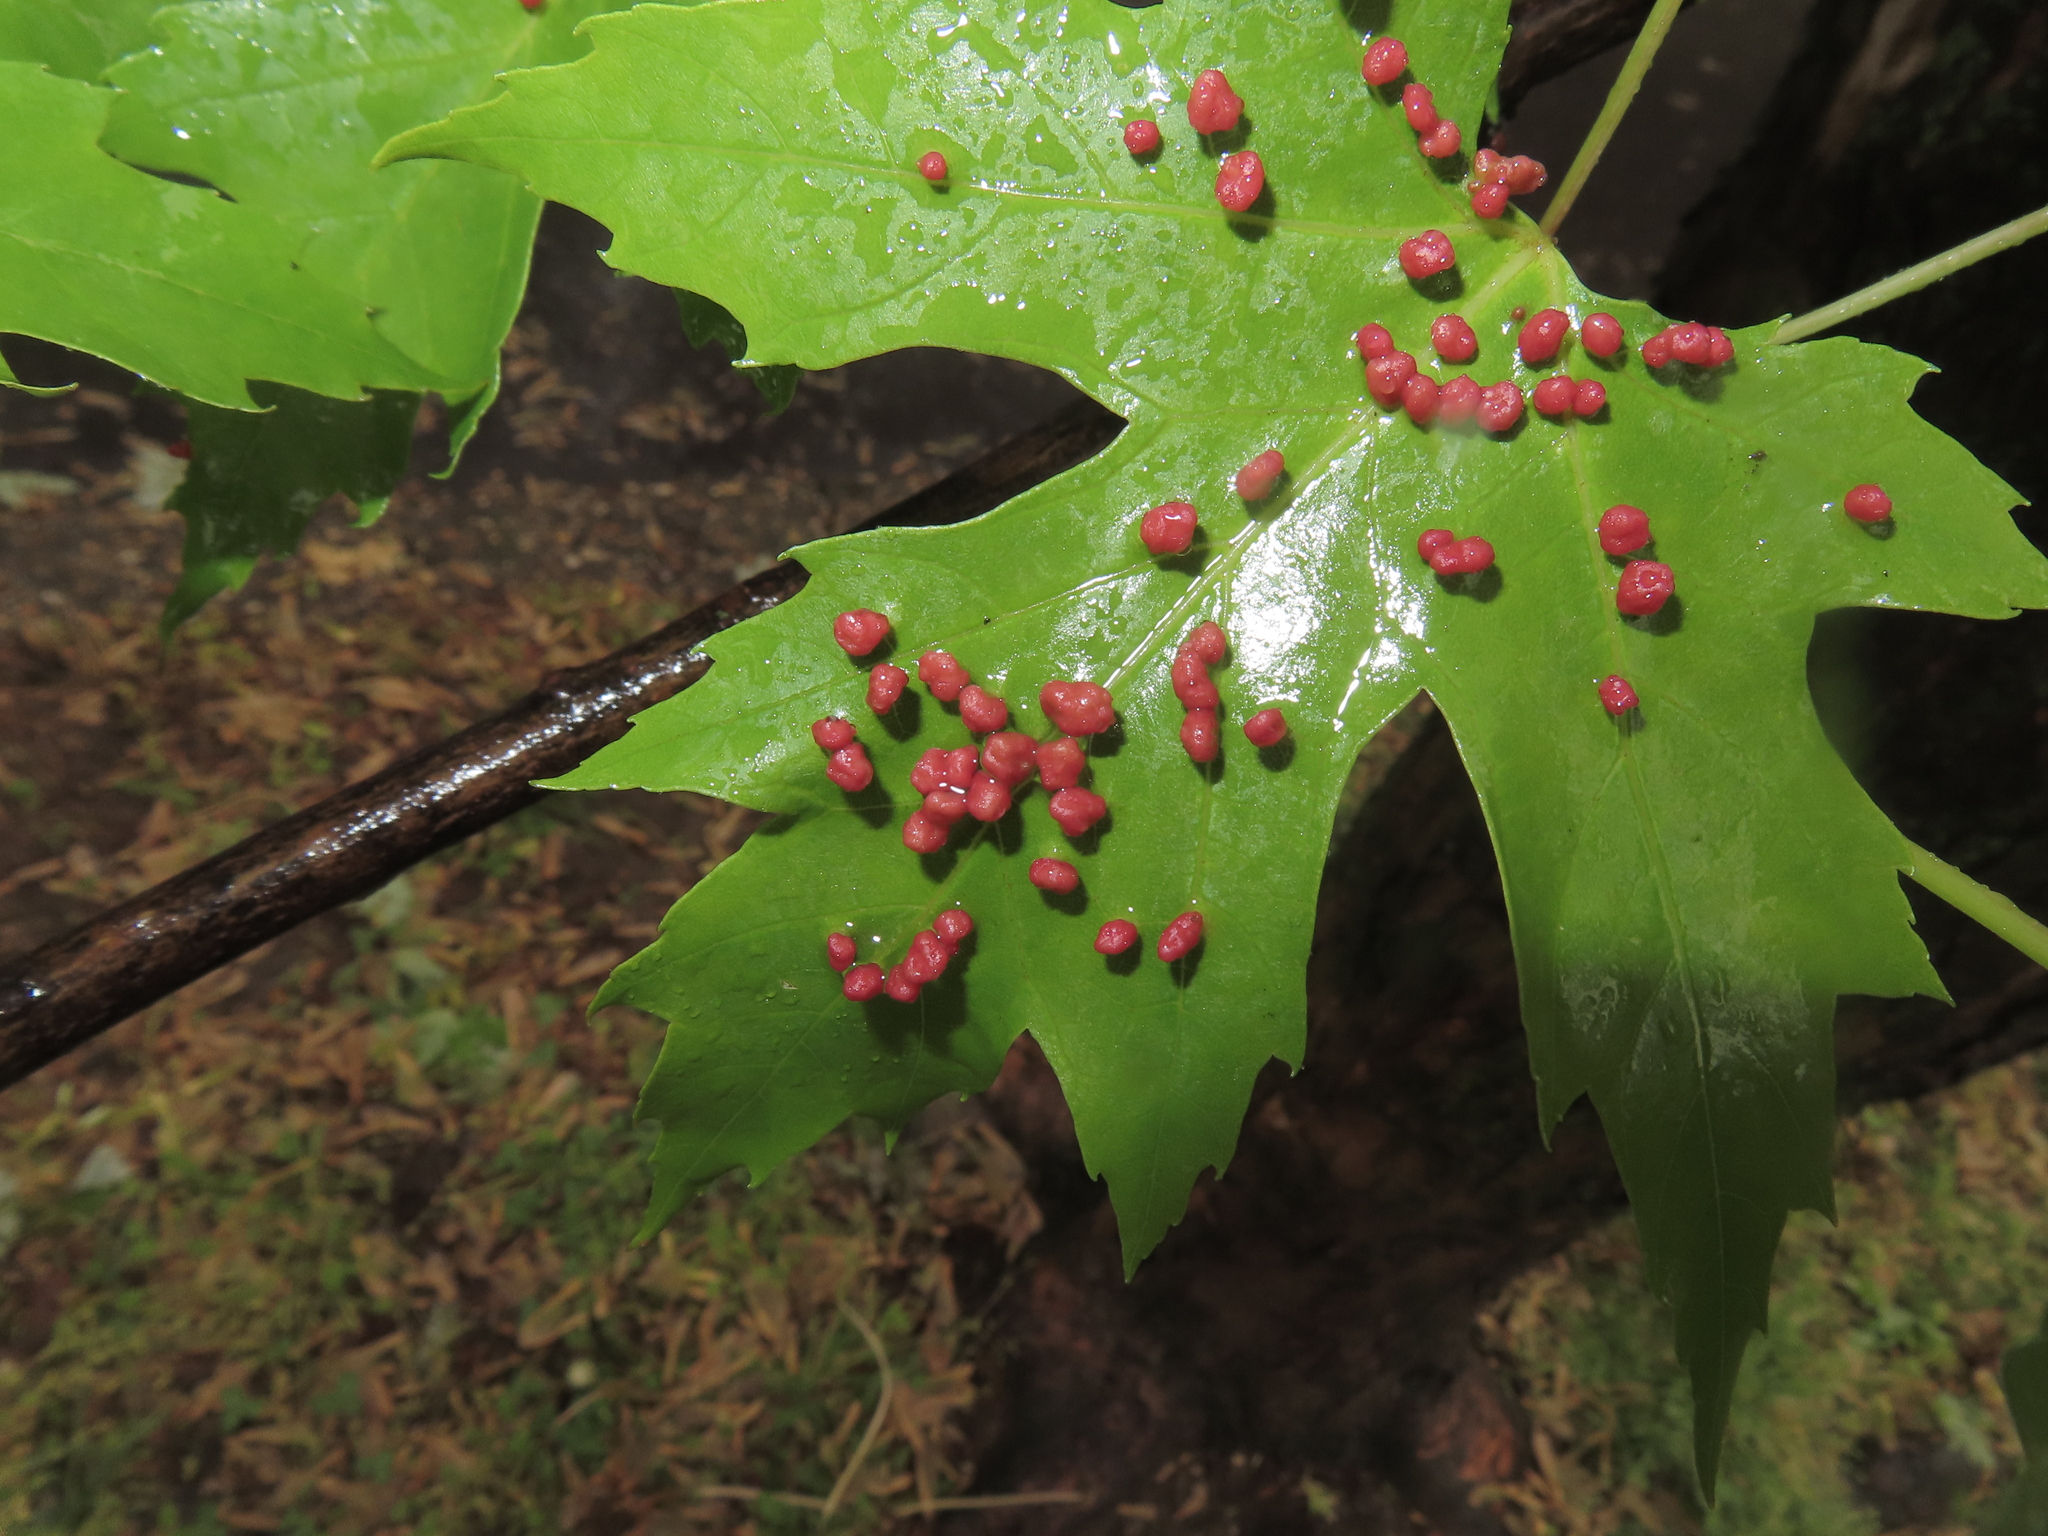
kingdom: Animalia
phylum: Arthropoda
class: Arachnida
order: Trombidiformes
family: Eriophyidae
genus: Vasates
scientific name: Vasates quadripedes
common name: Maple bladder gall mite
